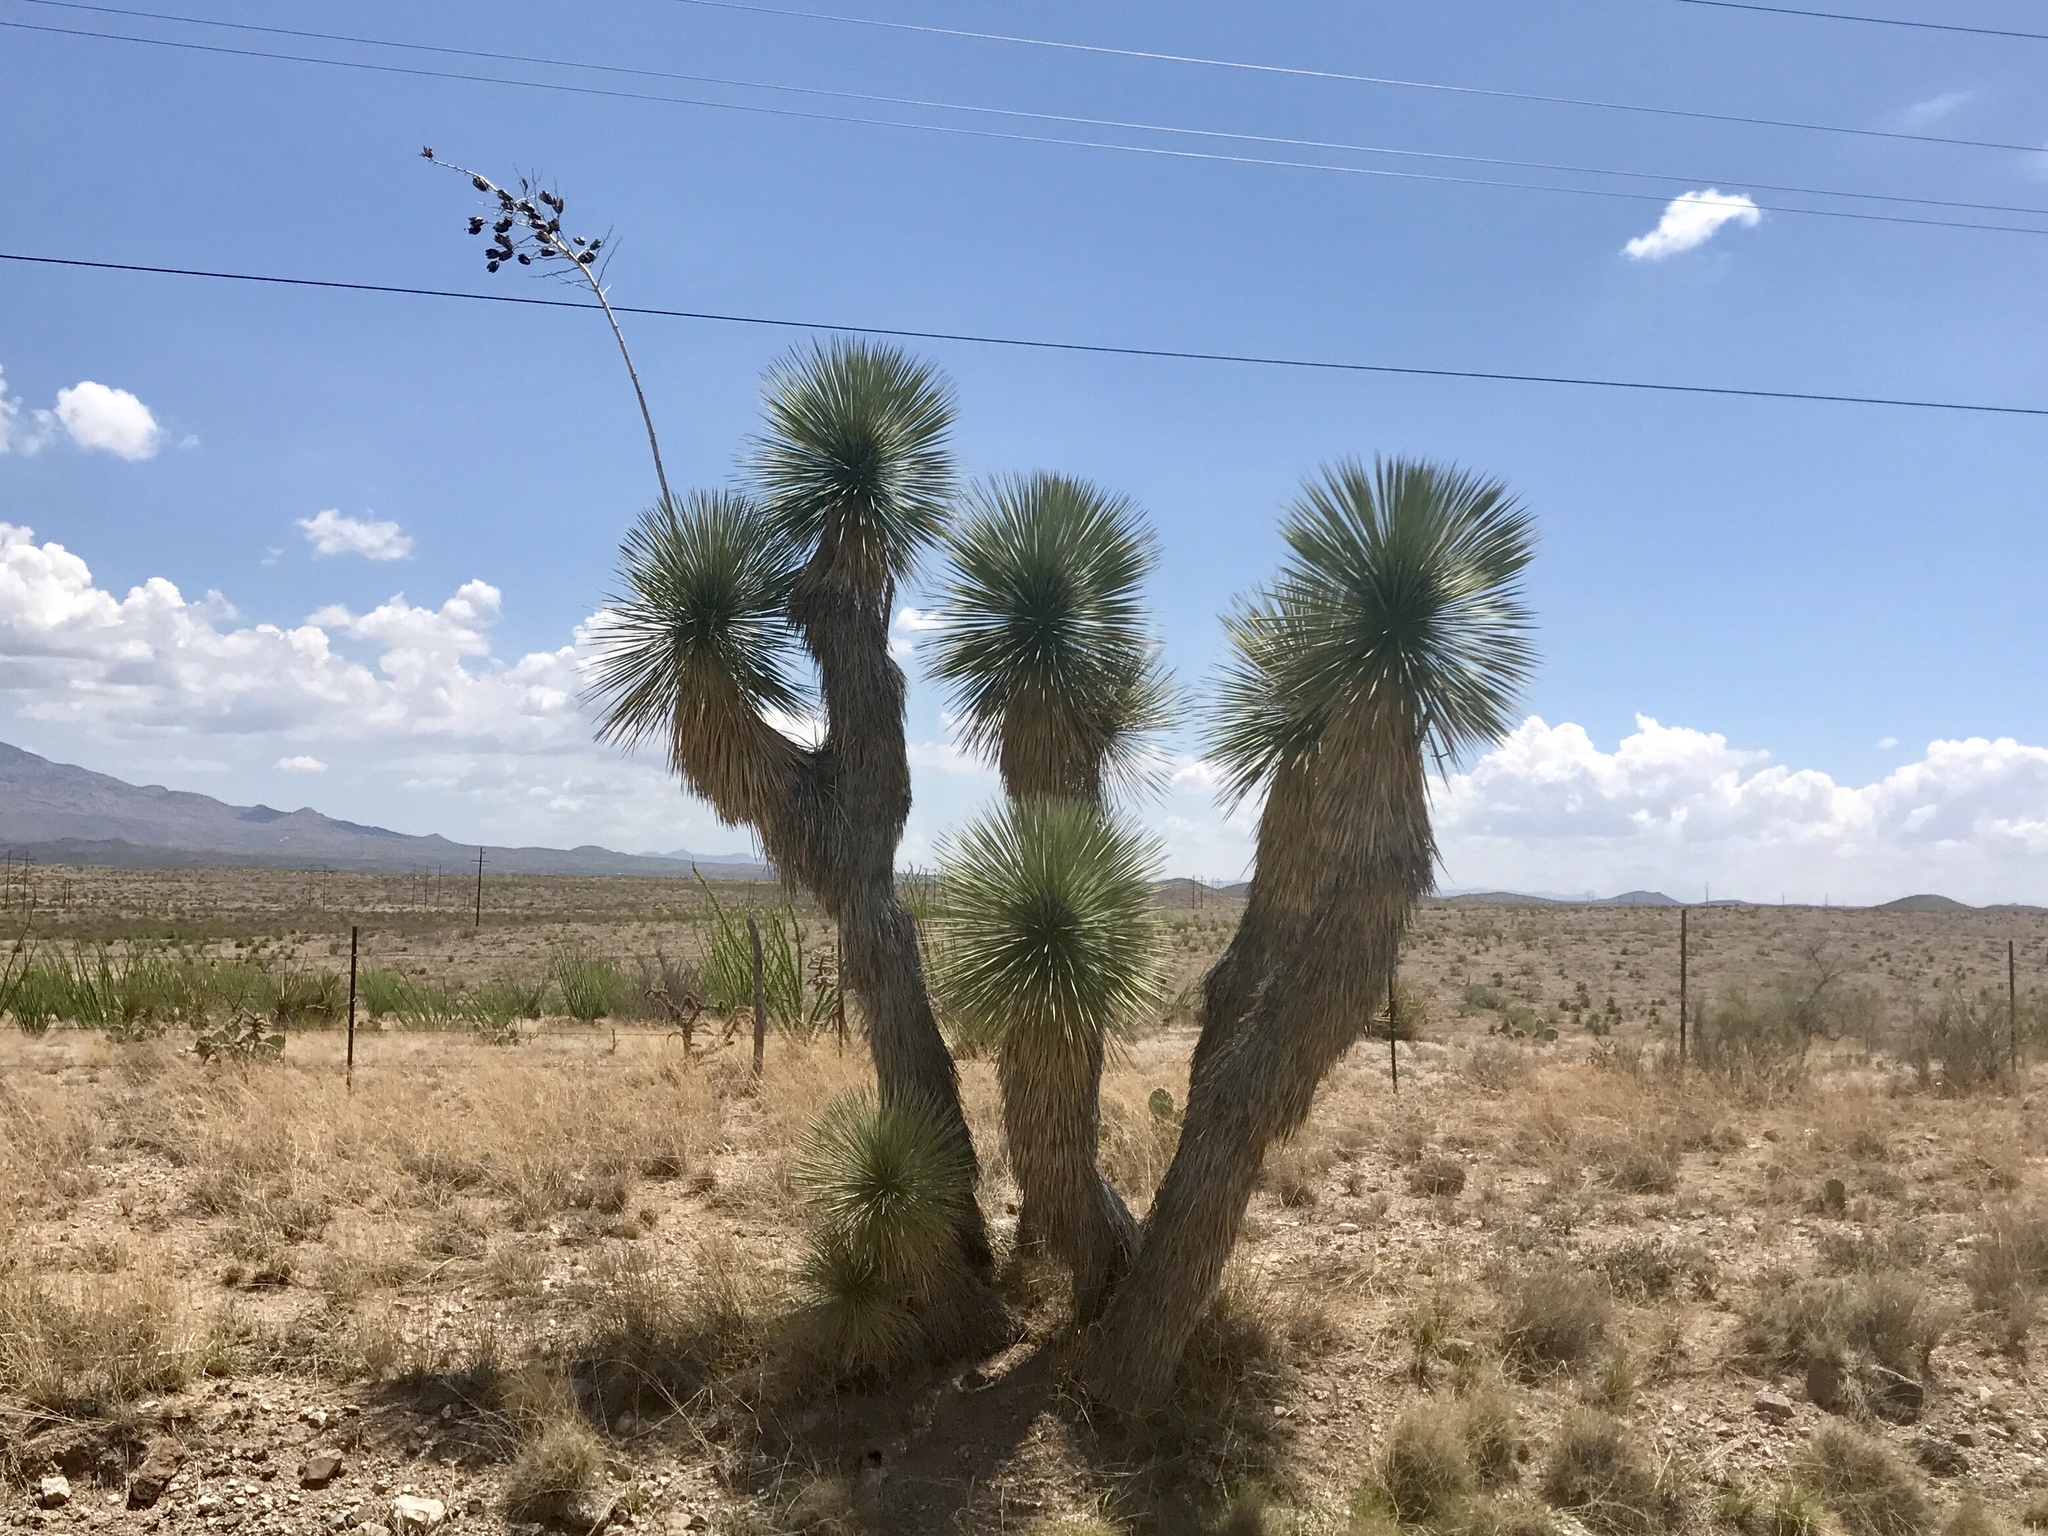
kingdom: Plantae
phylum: Tracheophyta
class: Liliopsida
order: Asparagales
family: Asparagaceae
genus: Yucca
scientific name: Yucca elata
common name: Palmella
